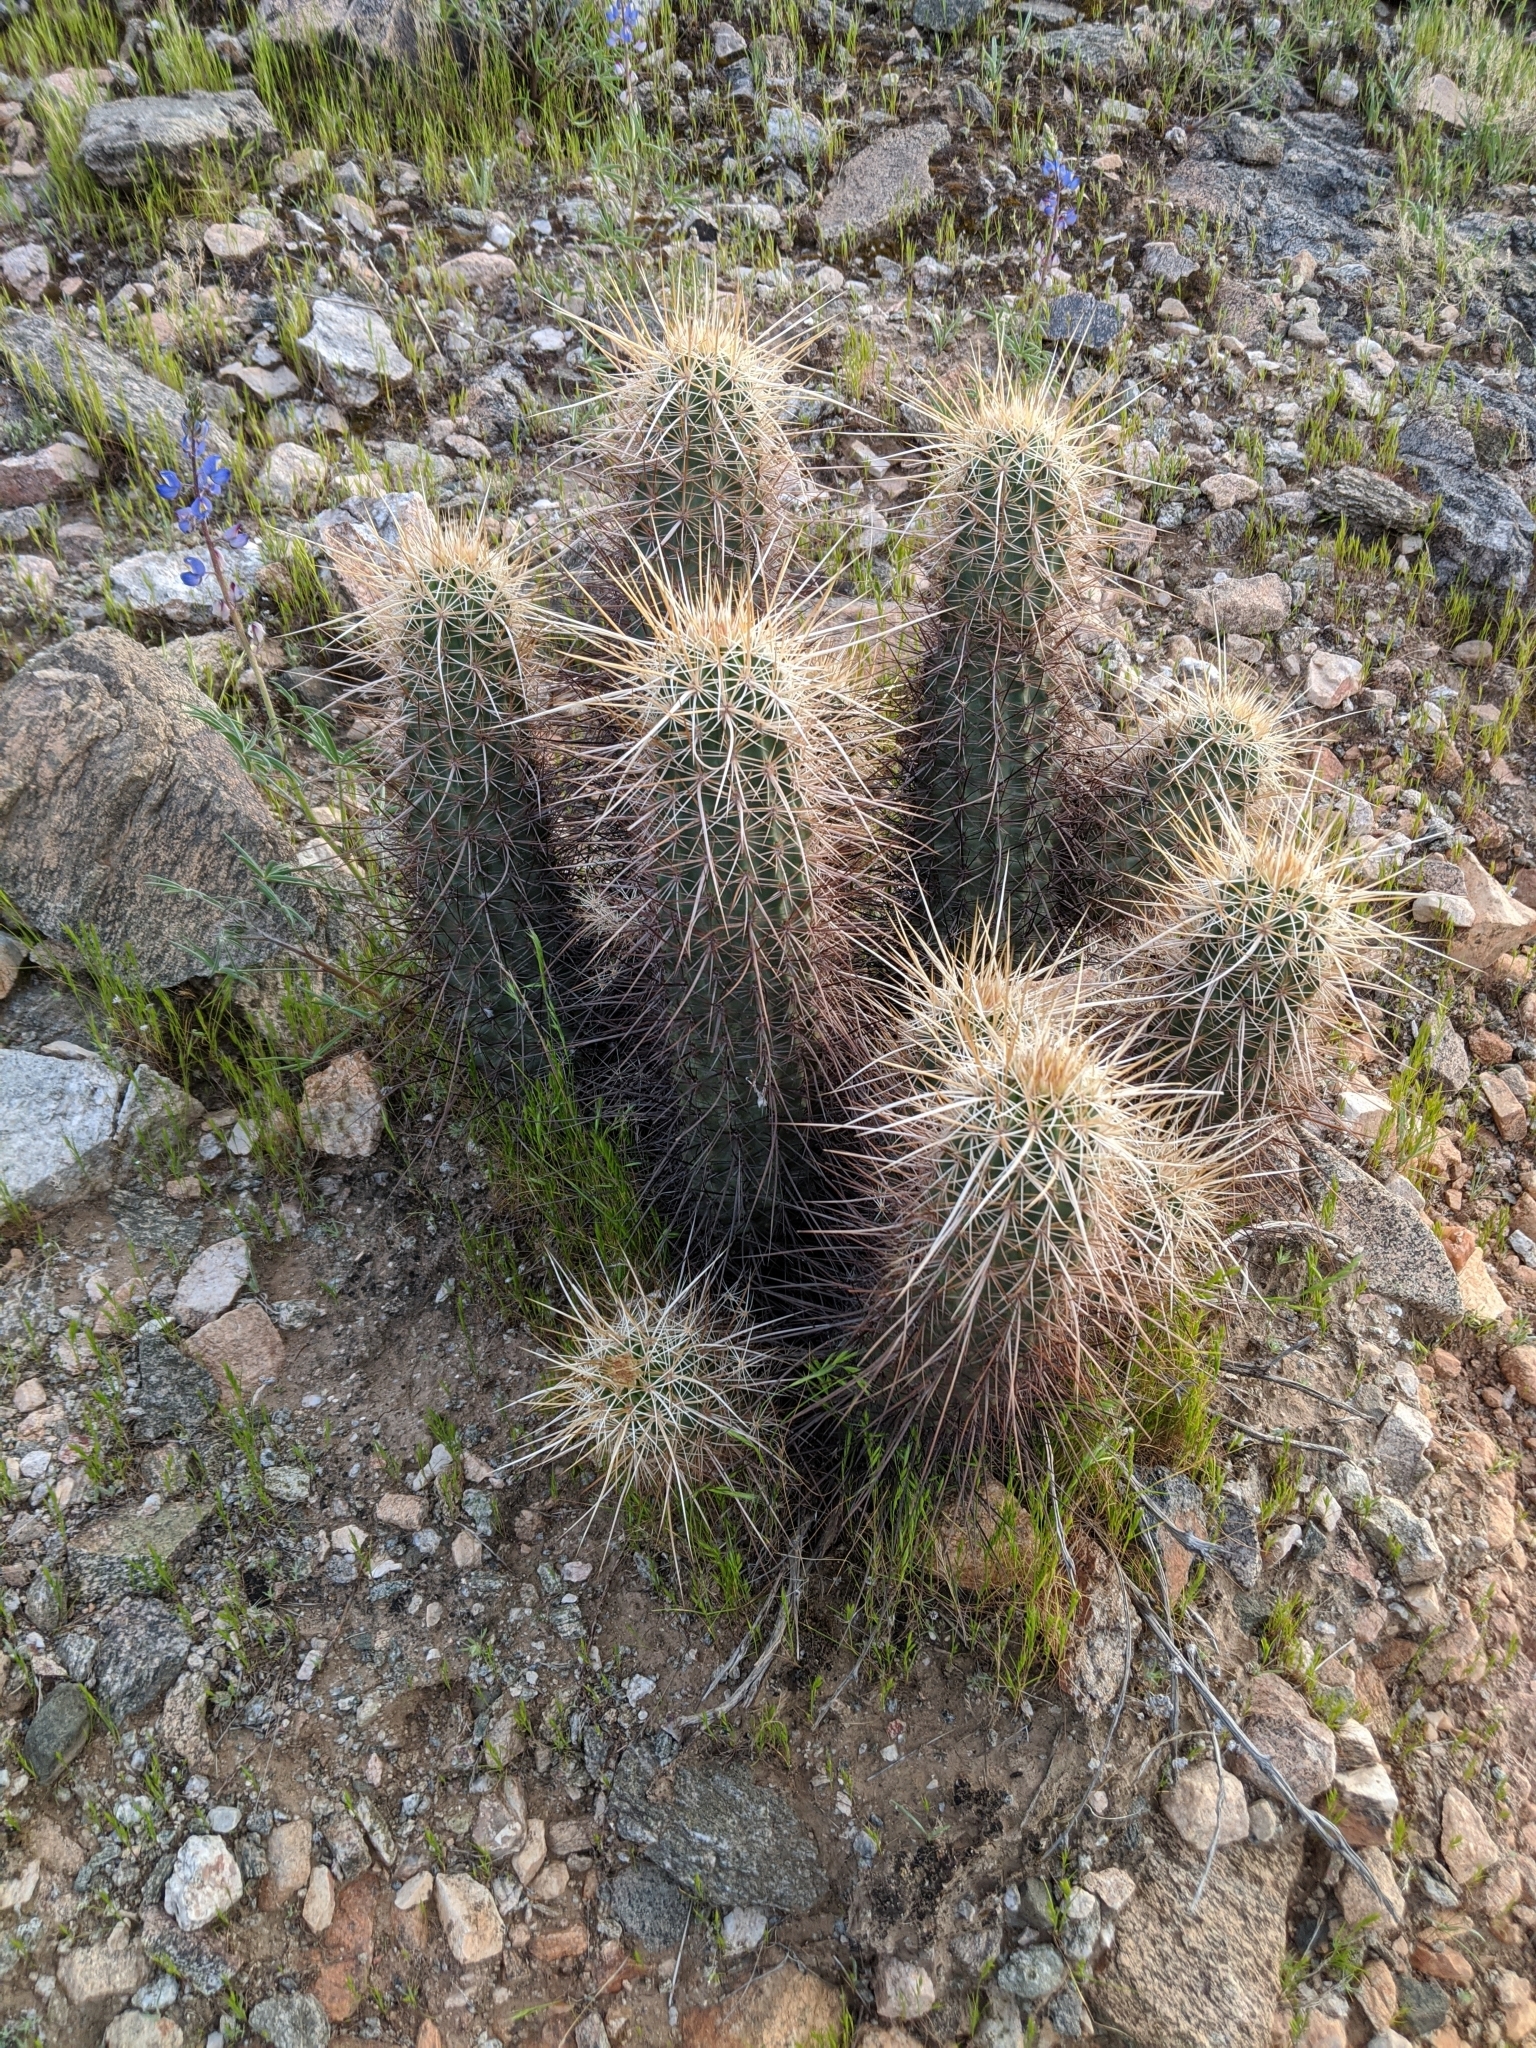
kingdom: Plantae
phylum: Tracheophyta
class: Magnoliopsida
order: Caryophyllales
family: Cactaceae
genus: Echinocereus
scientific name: Echinocereus engelmannii
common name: Engelmann's hedgehog cactus
